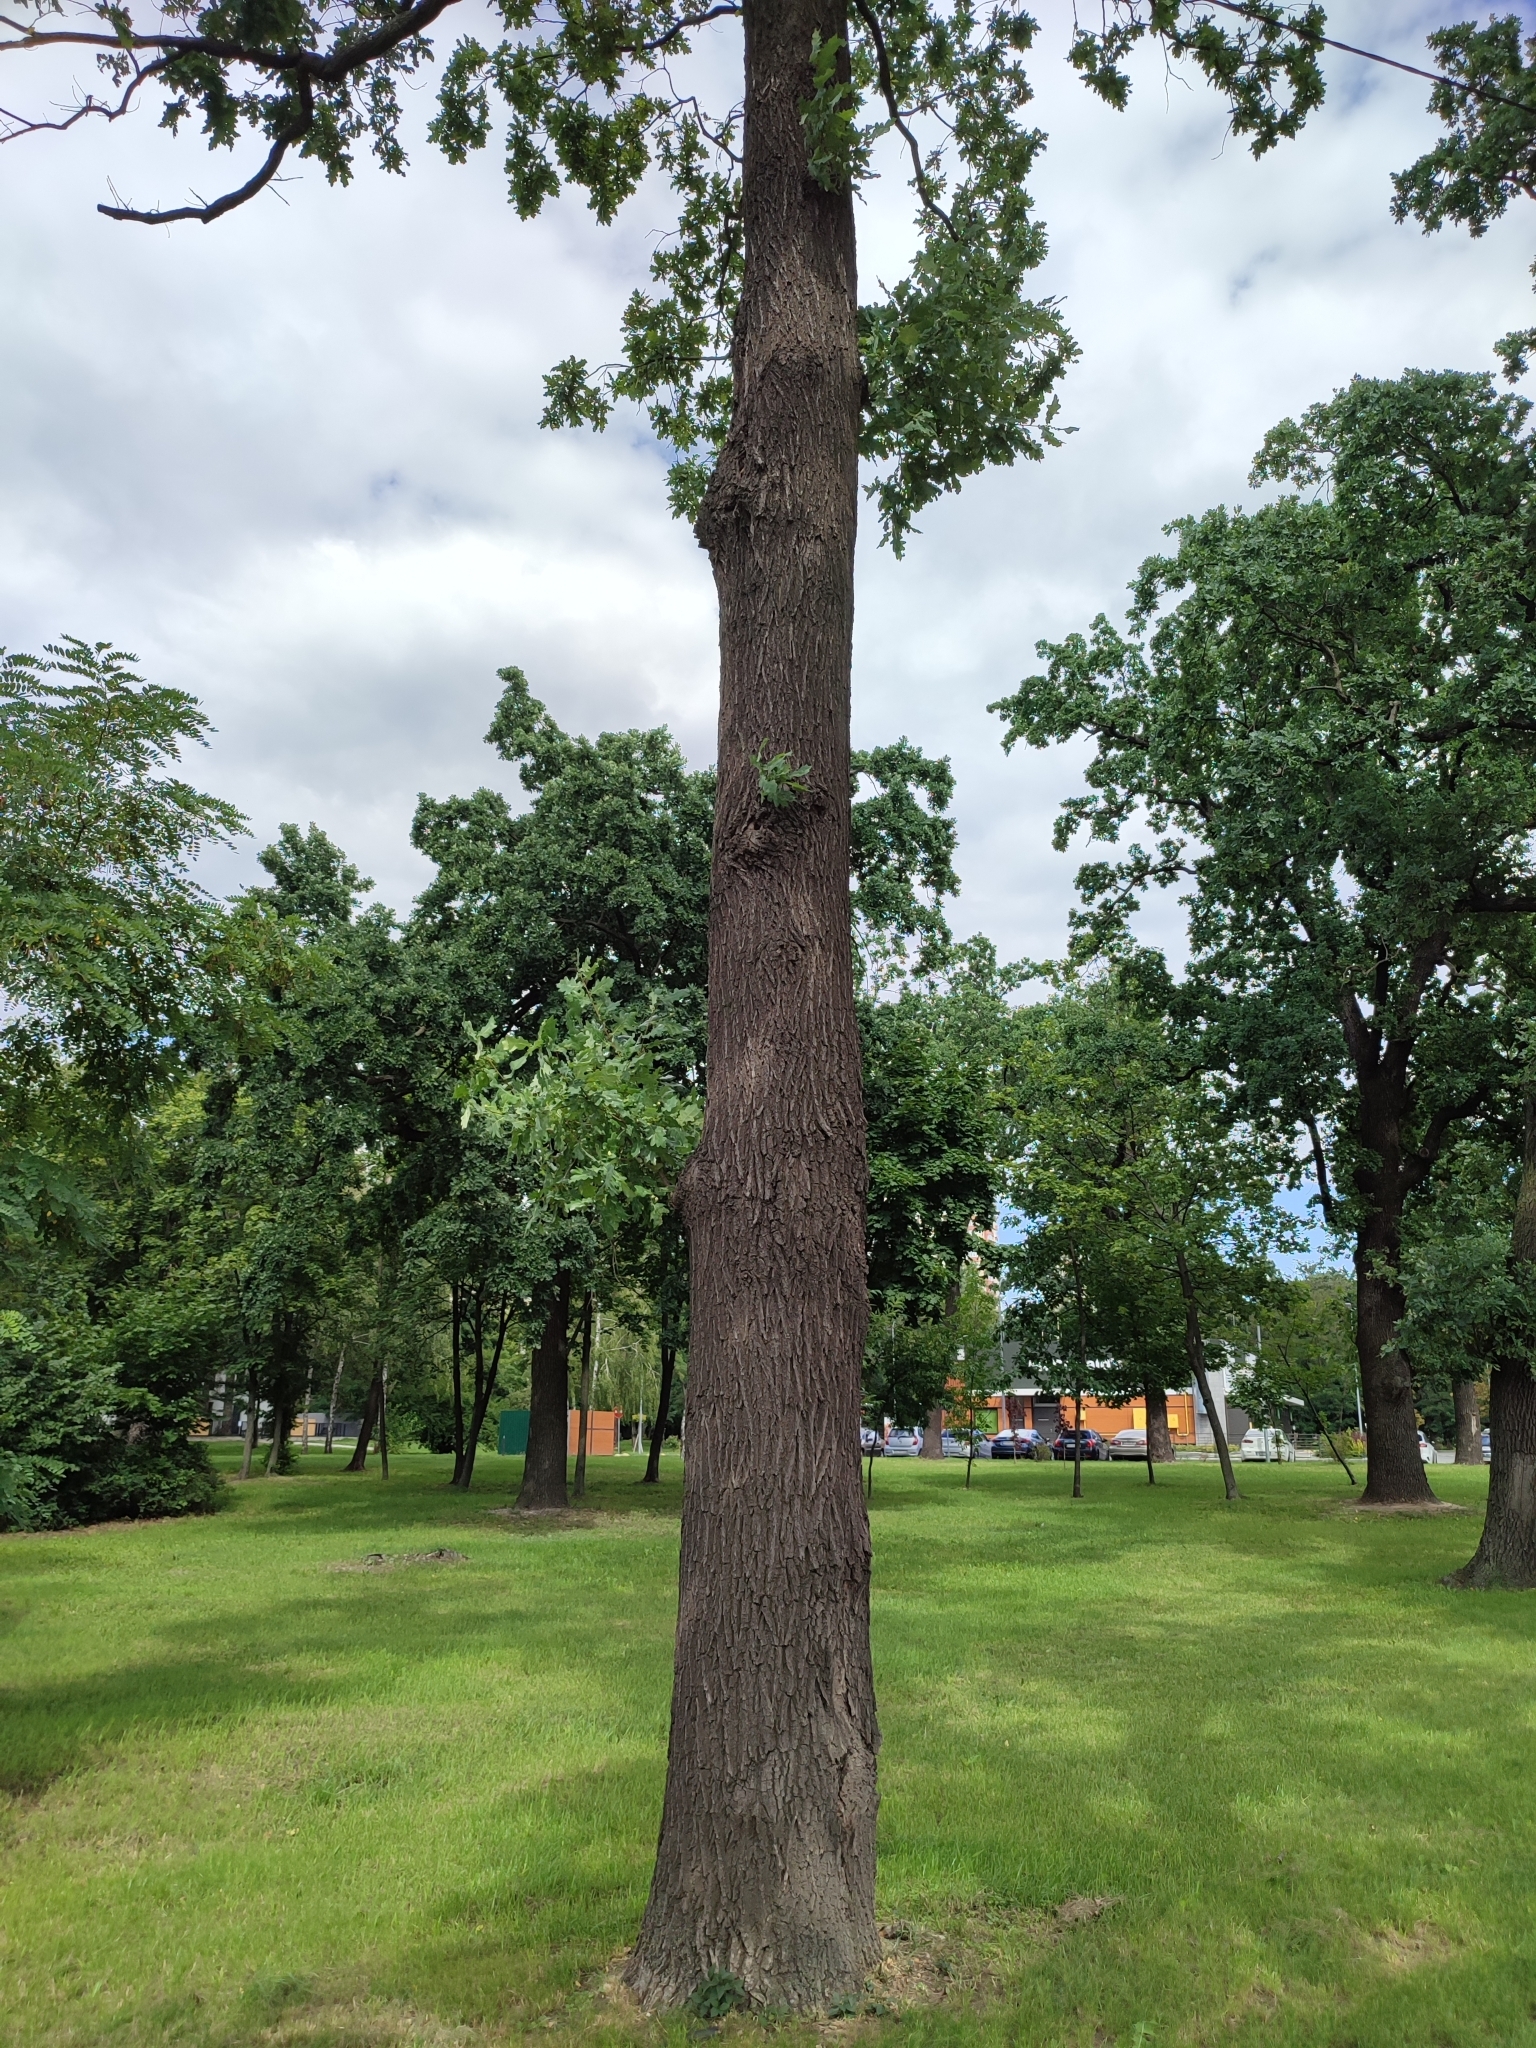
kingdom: Plantae
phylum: Tracheophyta
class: Magnoliopsida
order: Fagales
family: Fagaceae
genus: Quercus
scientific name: Quercus robur
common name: Pedunculate oak
